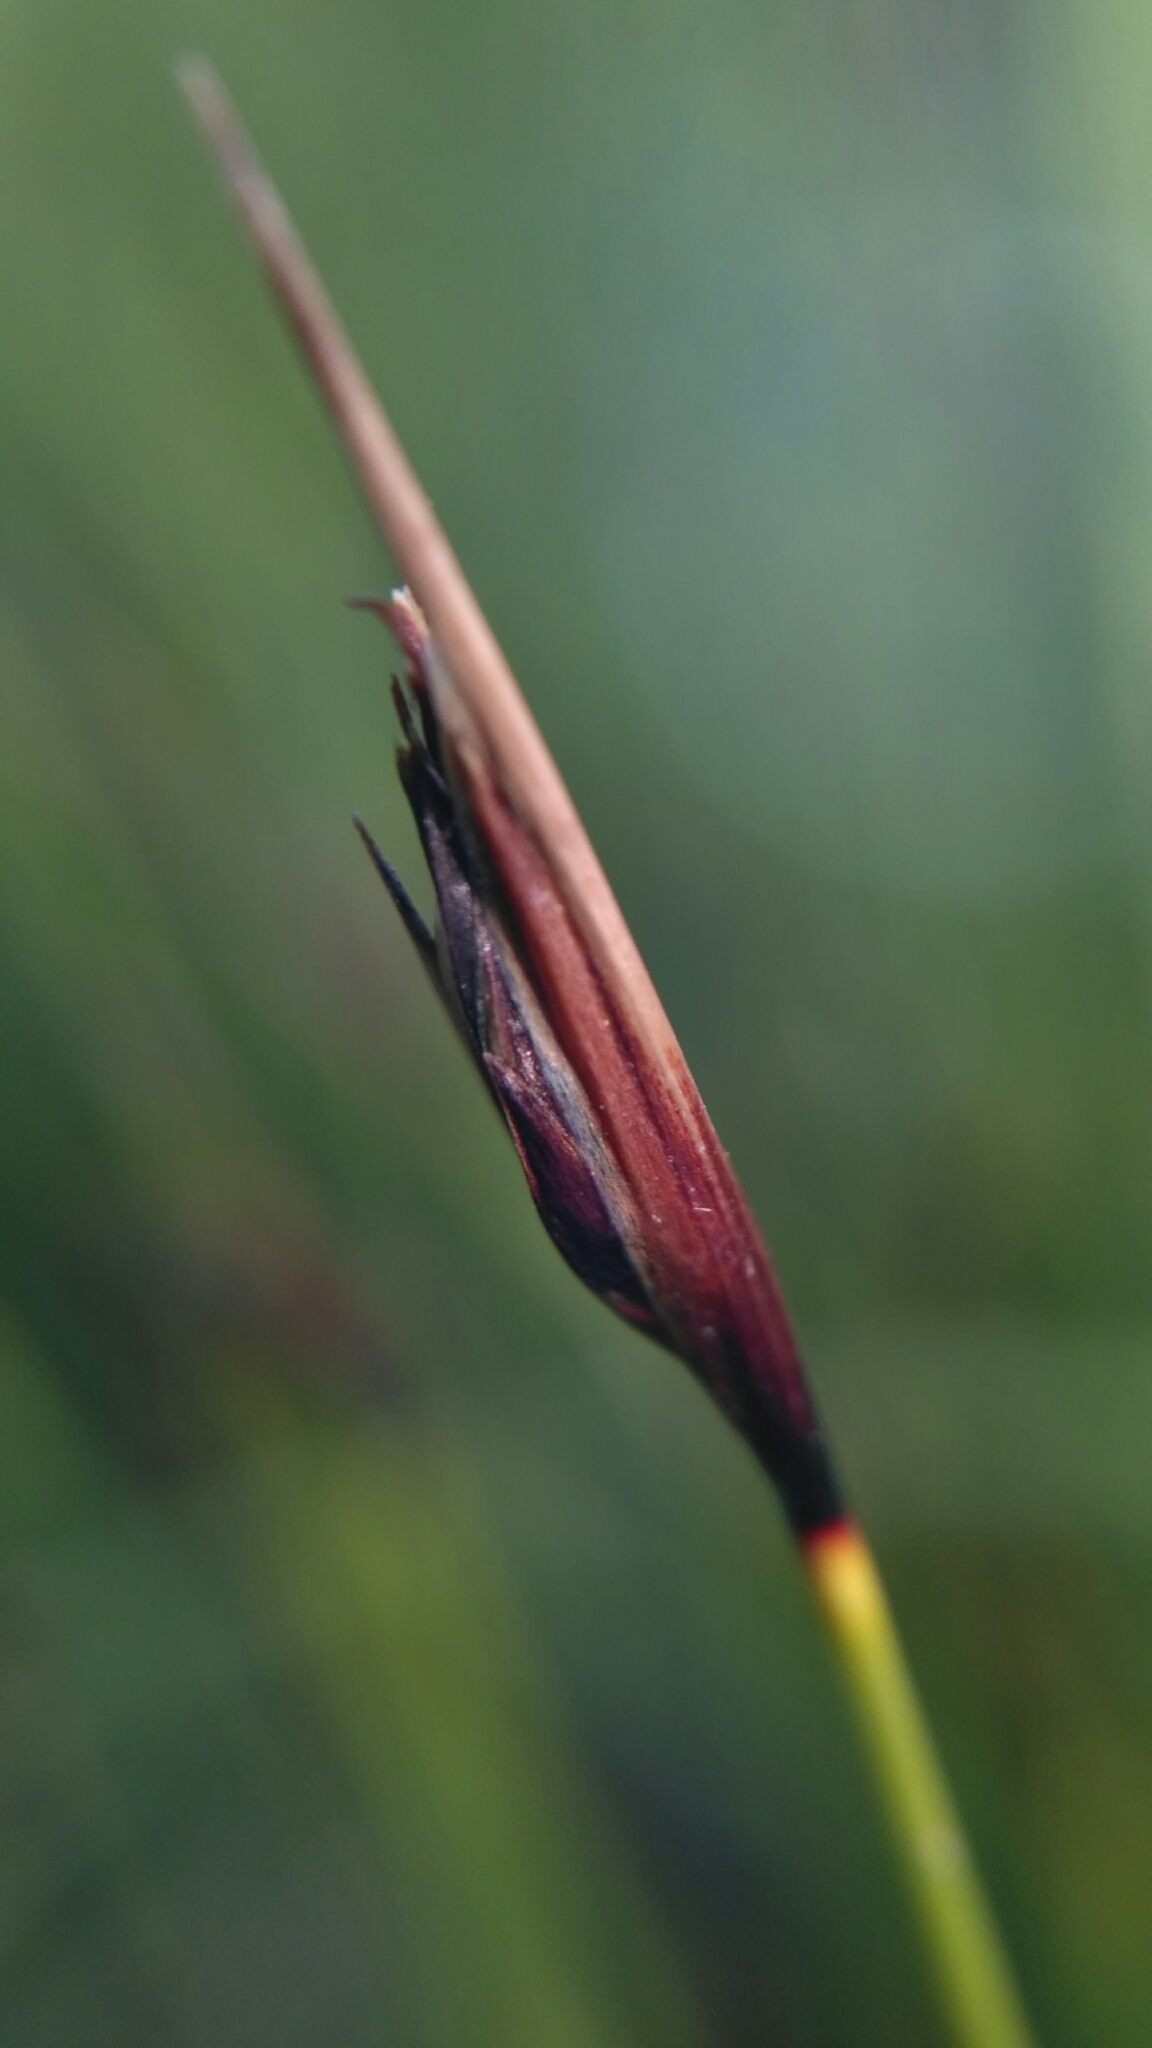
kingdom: Plantae
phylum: Tracheophyta
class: Liliopsida
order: Poales
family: Cyperaceae
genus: Schoenus
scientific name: Schoenus ferrugineus
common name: Brown bog-rush
